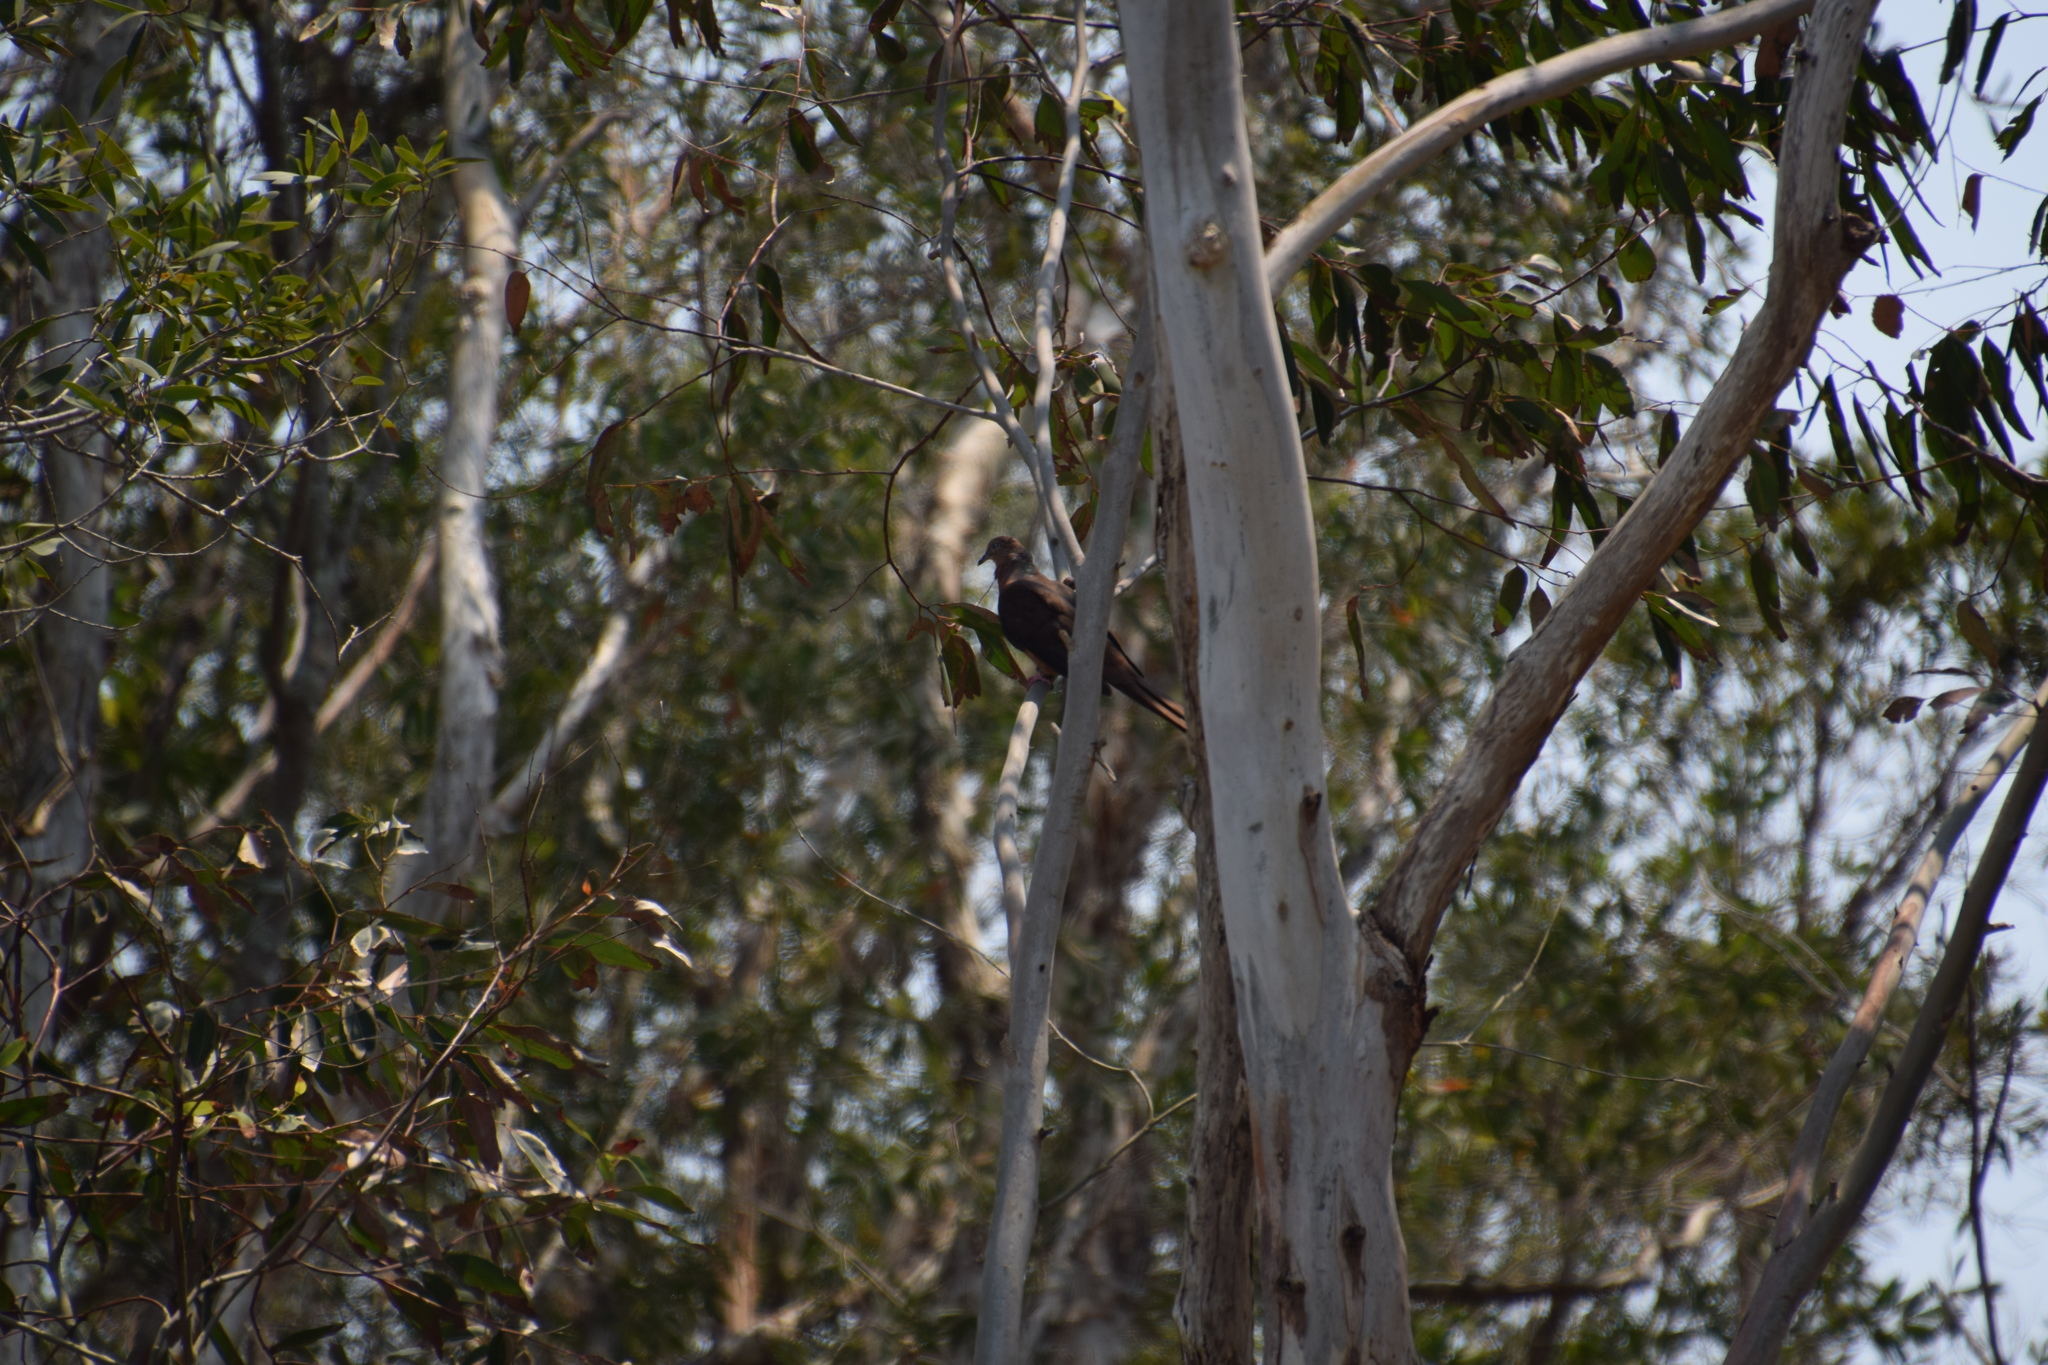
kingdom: Animalia
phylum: Chordata
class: Aves
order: Columbiformes
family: Columbidae
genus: Macropygia
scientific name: Macropygia phasianella
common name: Brown cuckoo-dove
